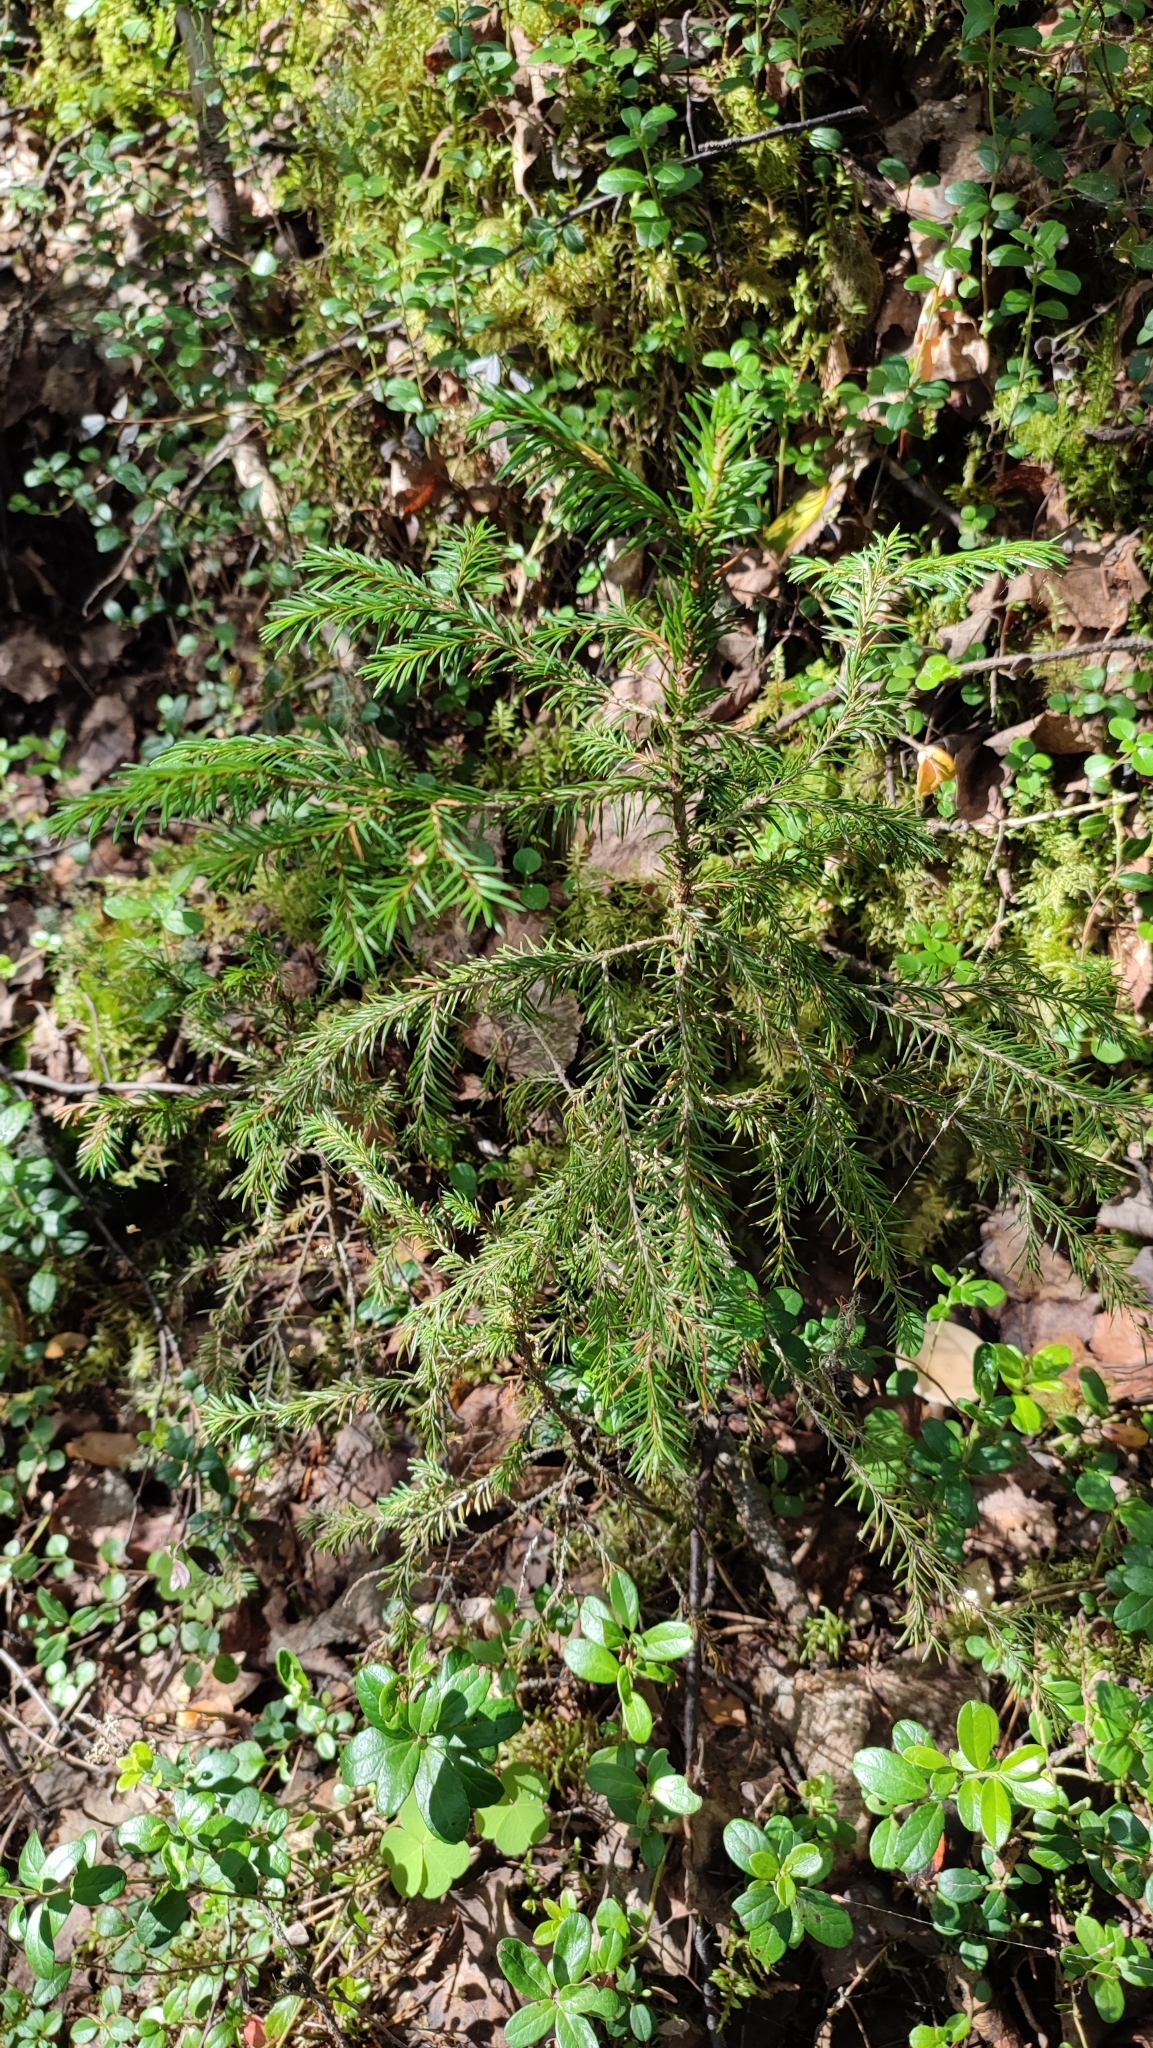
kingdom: Plantae
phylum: Tracheophyta
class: Pinopsida
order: Pinales
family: Pinaceae
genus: Picea
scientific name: Picea obovata
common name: Siberian spruce
